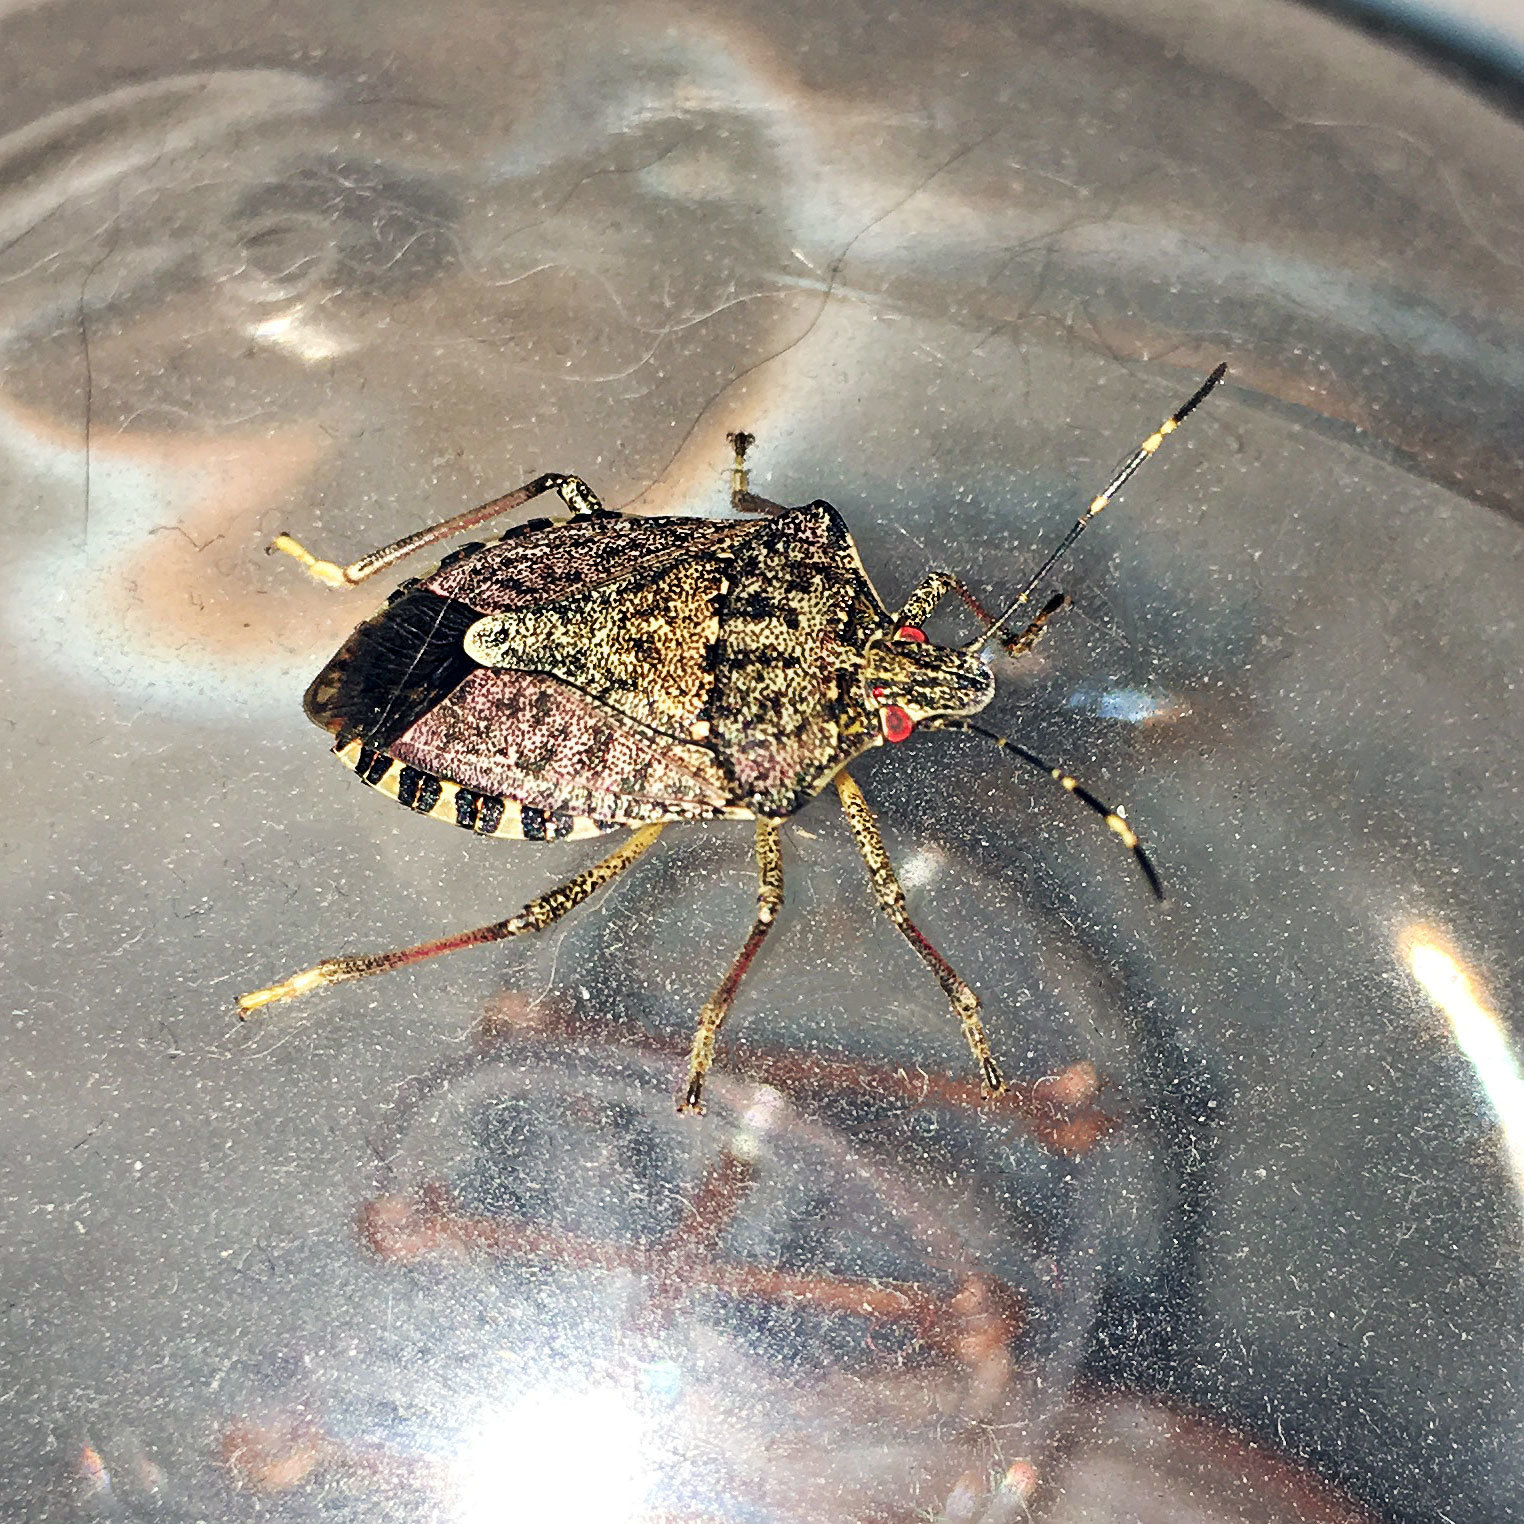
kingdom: Animalia
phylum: Arthropoda
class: Insecta
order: Hemiptera
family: Pentatomidae
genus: Halyomorpha
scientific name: Halyomorpha halys
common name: Brown marmorated stink bug
